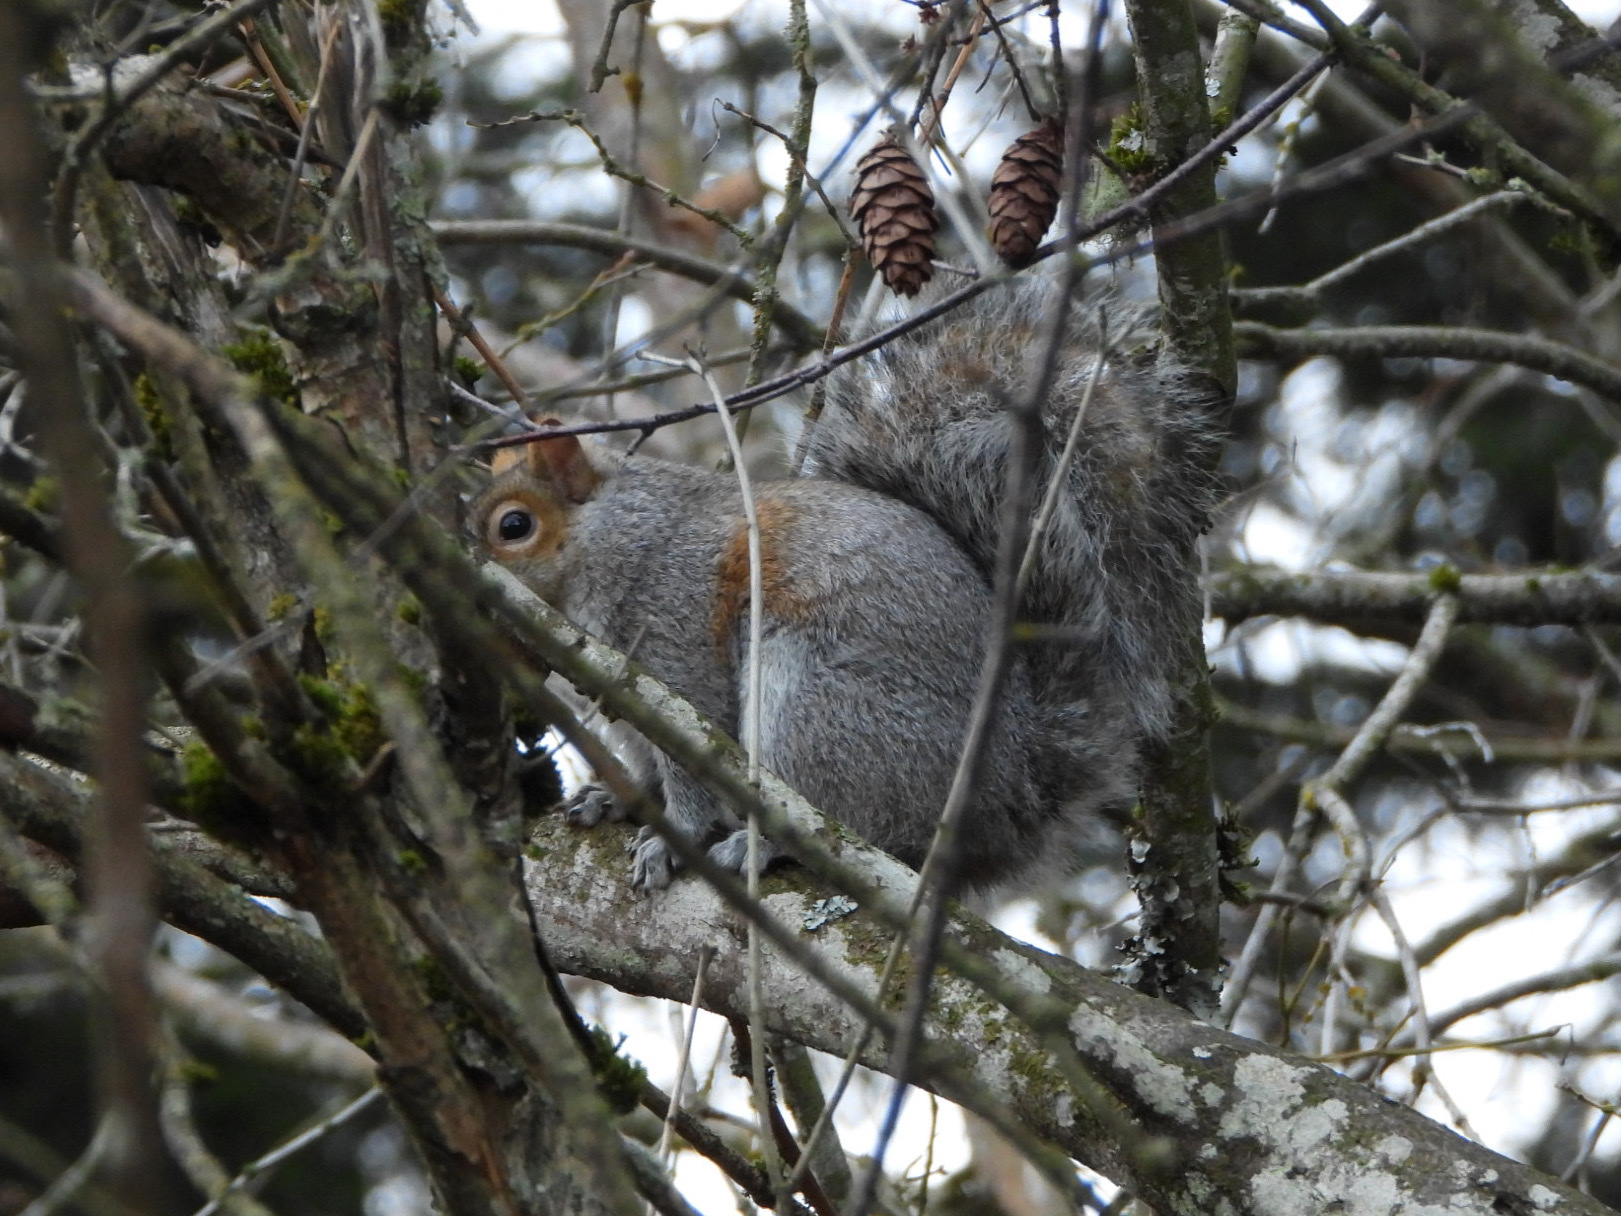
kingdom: Animalia
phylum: Chordata
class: Mammalia
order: Rodentia
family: Sciuridae
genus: Sciurus
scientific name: Sciurus carolinensis
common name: Eastern gray squirrel
